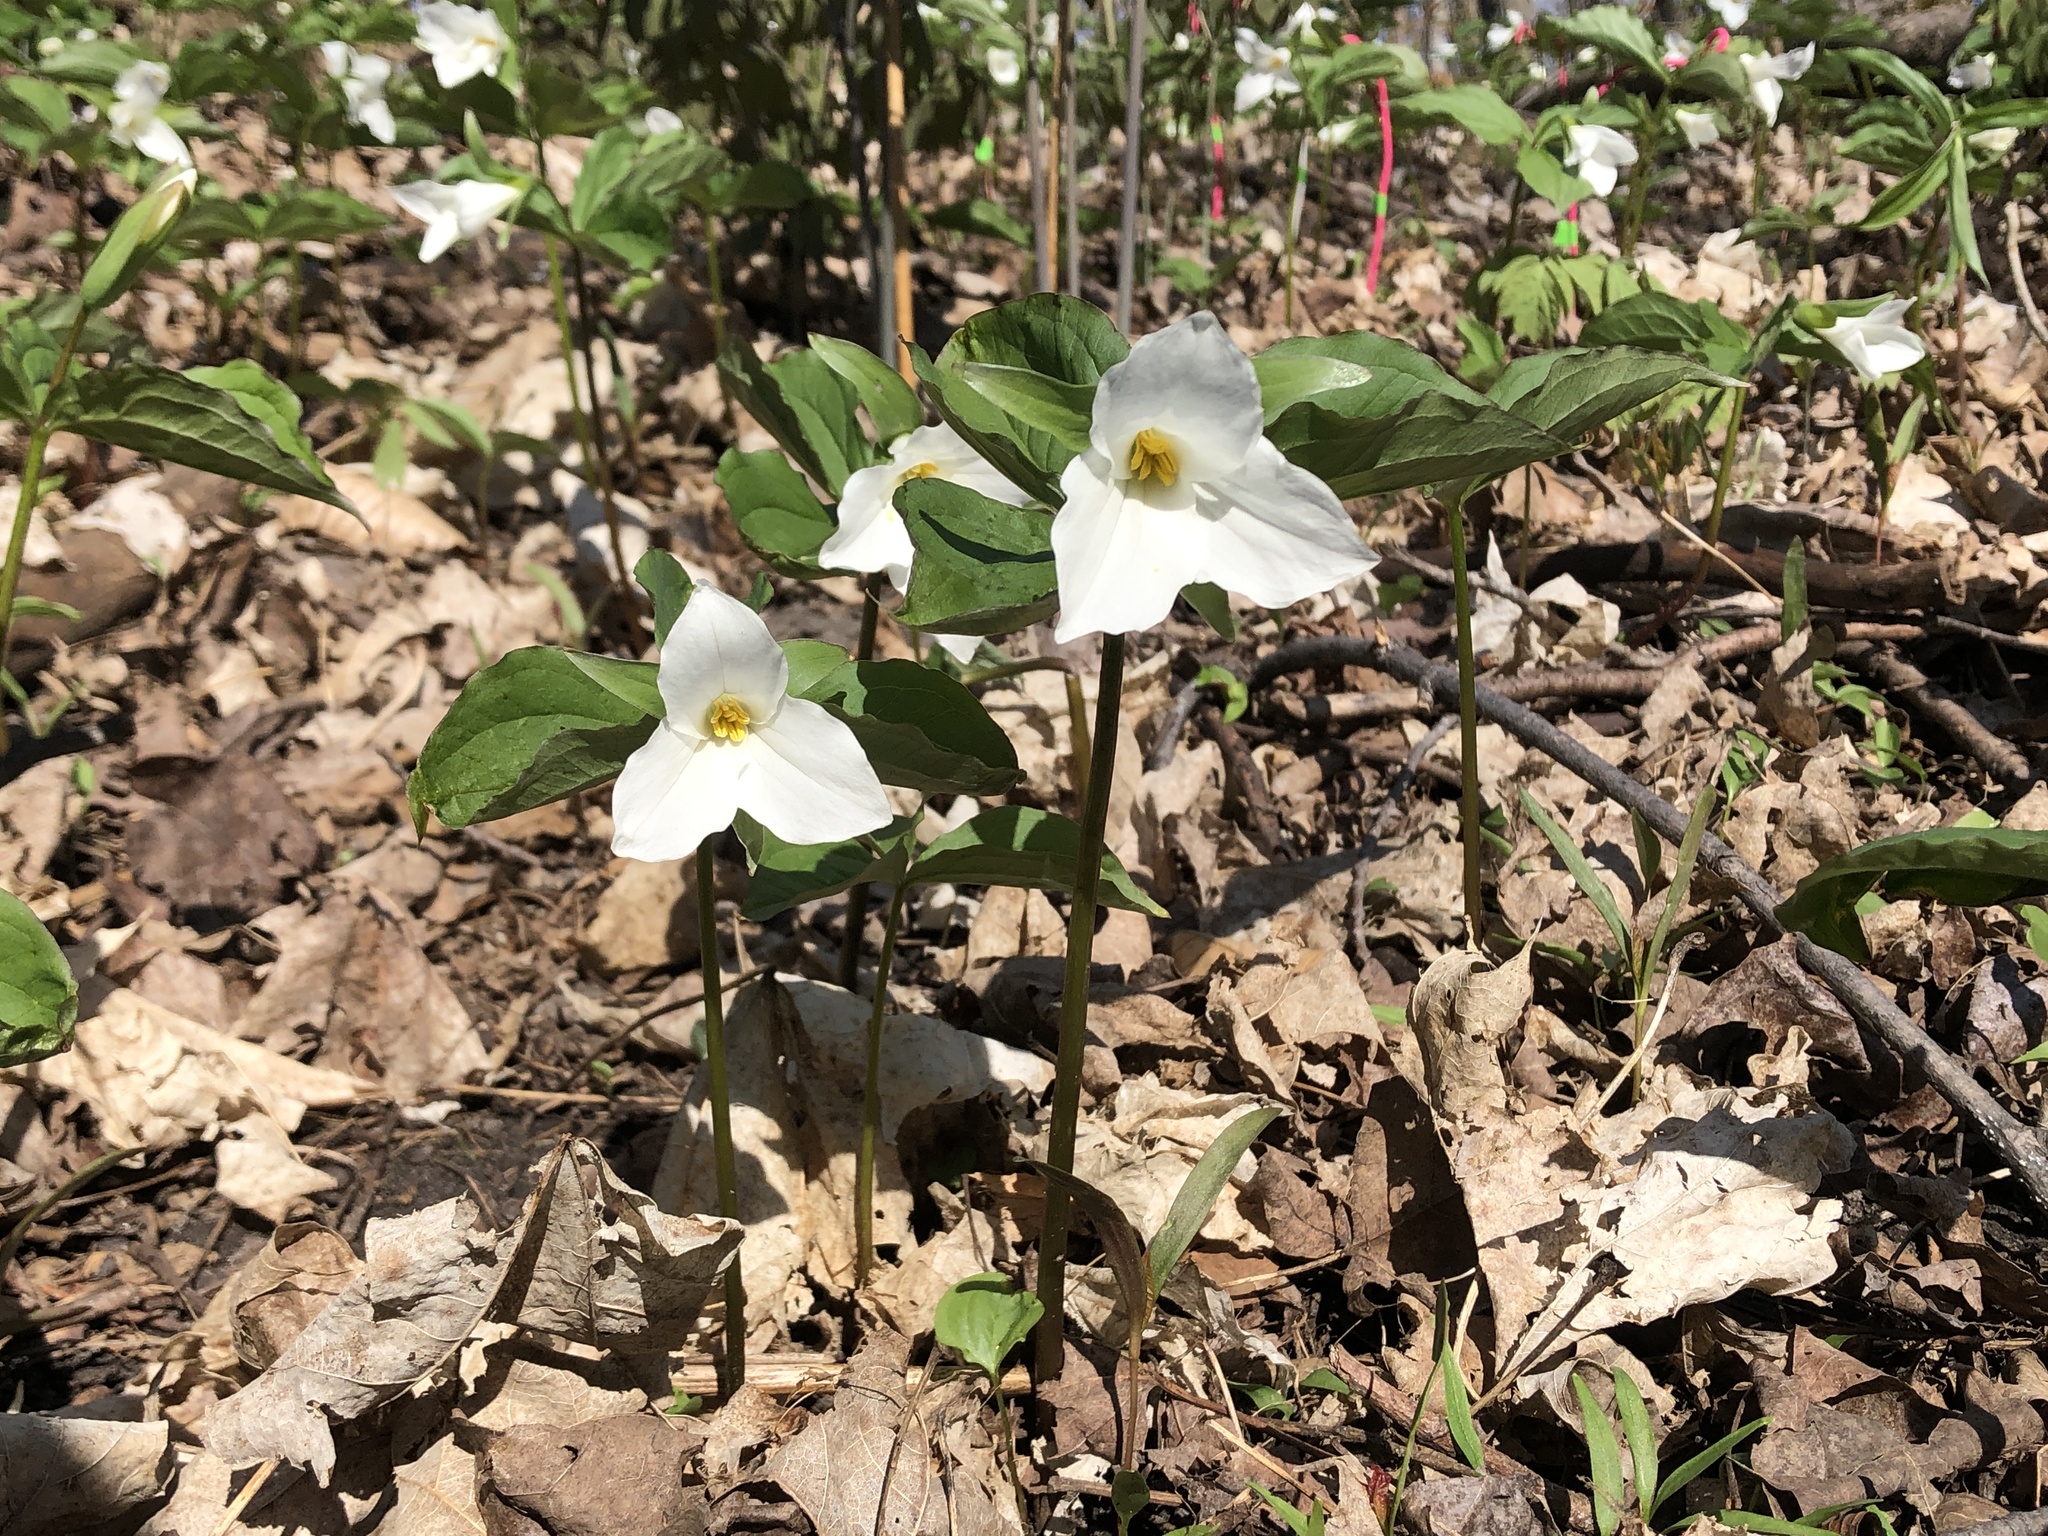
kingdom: Plantae
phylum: Tracheophyta
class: Liliopsida
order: Liliales
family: Melanthiaceae
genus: Trillium
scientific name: Trillium grandiflorum
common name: Great white trillium
